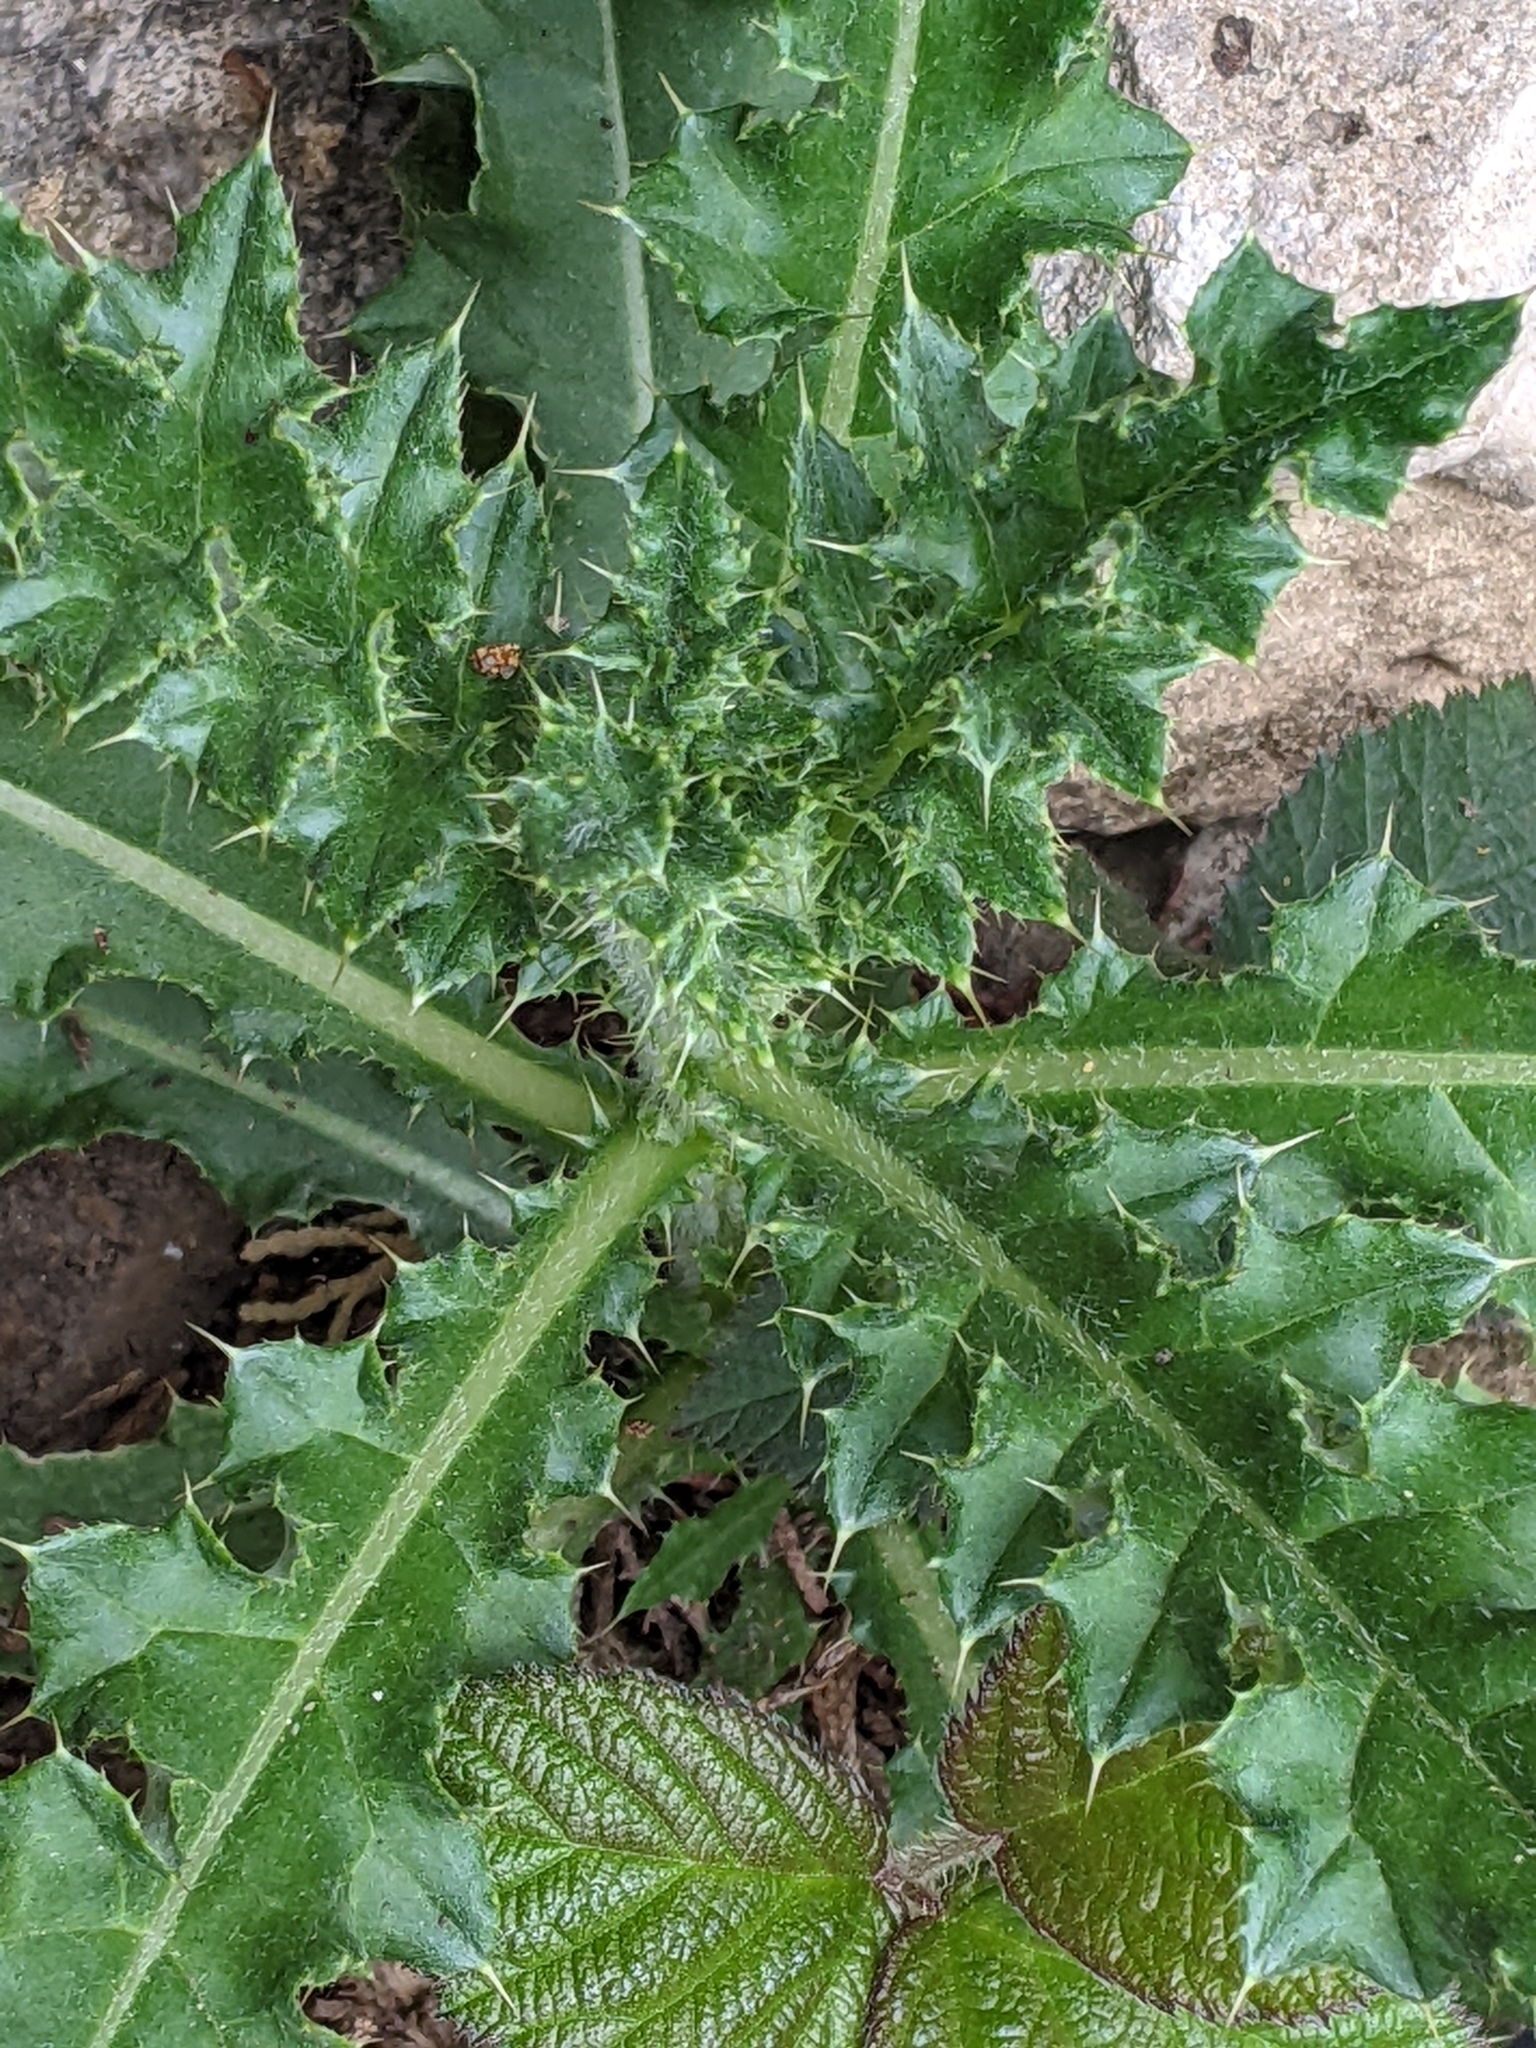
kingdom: Plantae
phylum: Tracheophyta
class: Magnoliopsida
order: Asterales
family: Asteraceae
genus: Cirsium
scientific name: Cirsium arvense
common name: Creeping thistle
